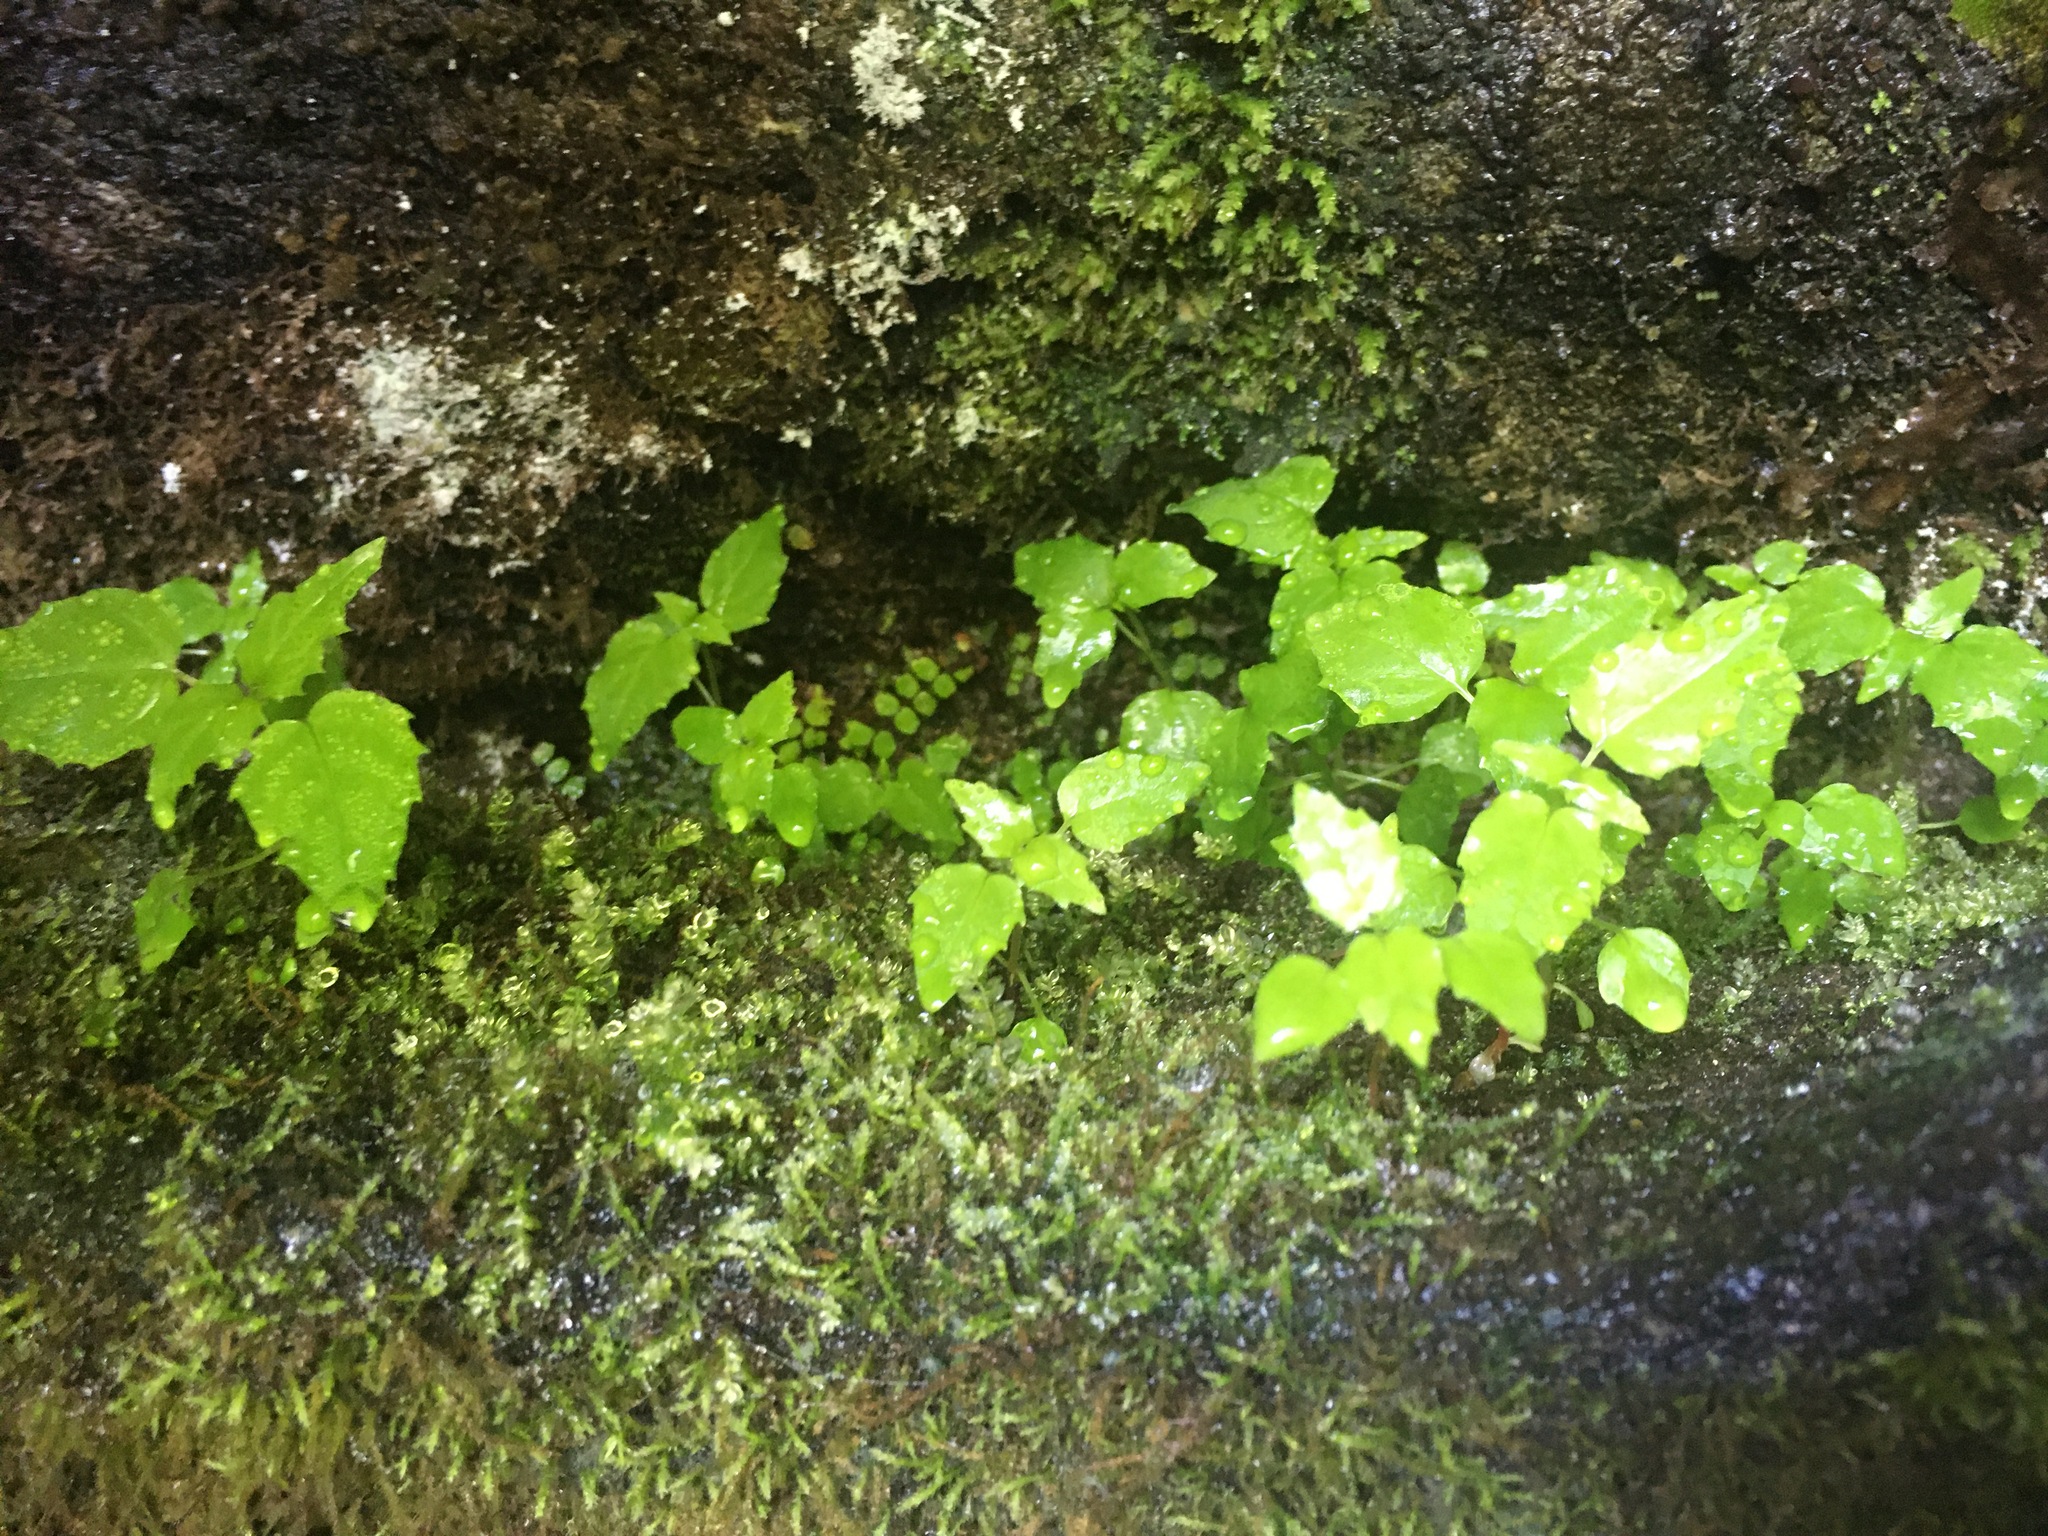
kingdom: Plantae
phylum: Tracheophyta
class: Magnoliopsida
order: Myrtales
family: Onagraceae
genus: Circaea
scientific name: Circaea alpina
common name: Alpine enchanter's-nightshade
